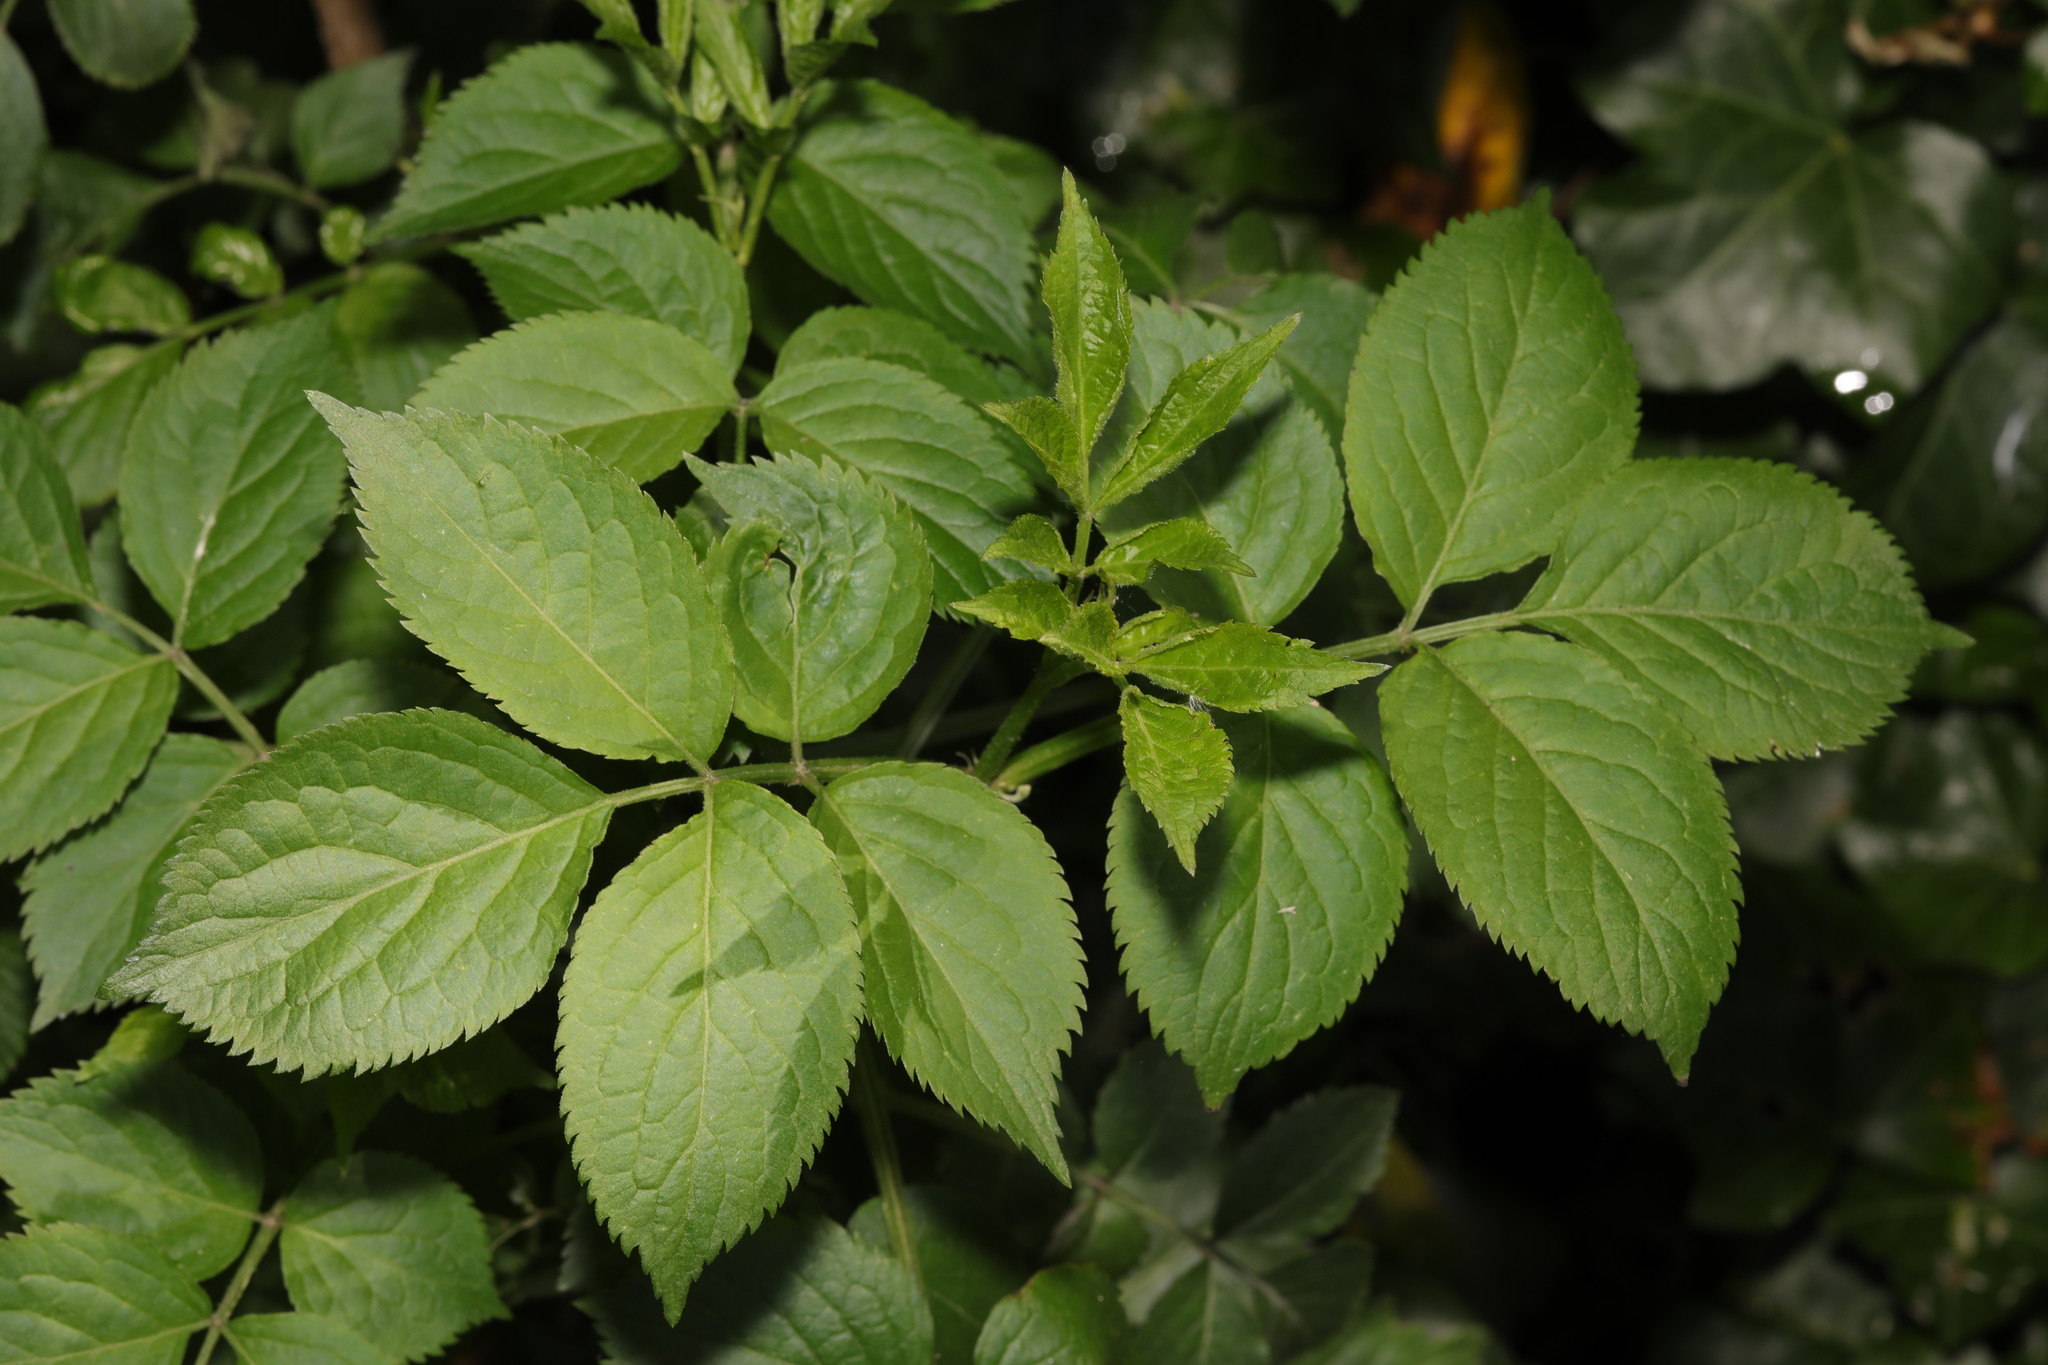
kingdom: Plantae
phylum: Tracheophyta
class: Magnoliopsida
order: Dipsacales
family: Viburnaceae
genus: Sambucus
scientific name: Sambucus nigra
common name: Elder
